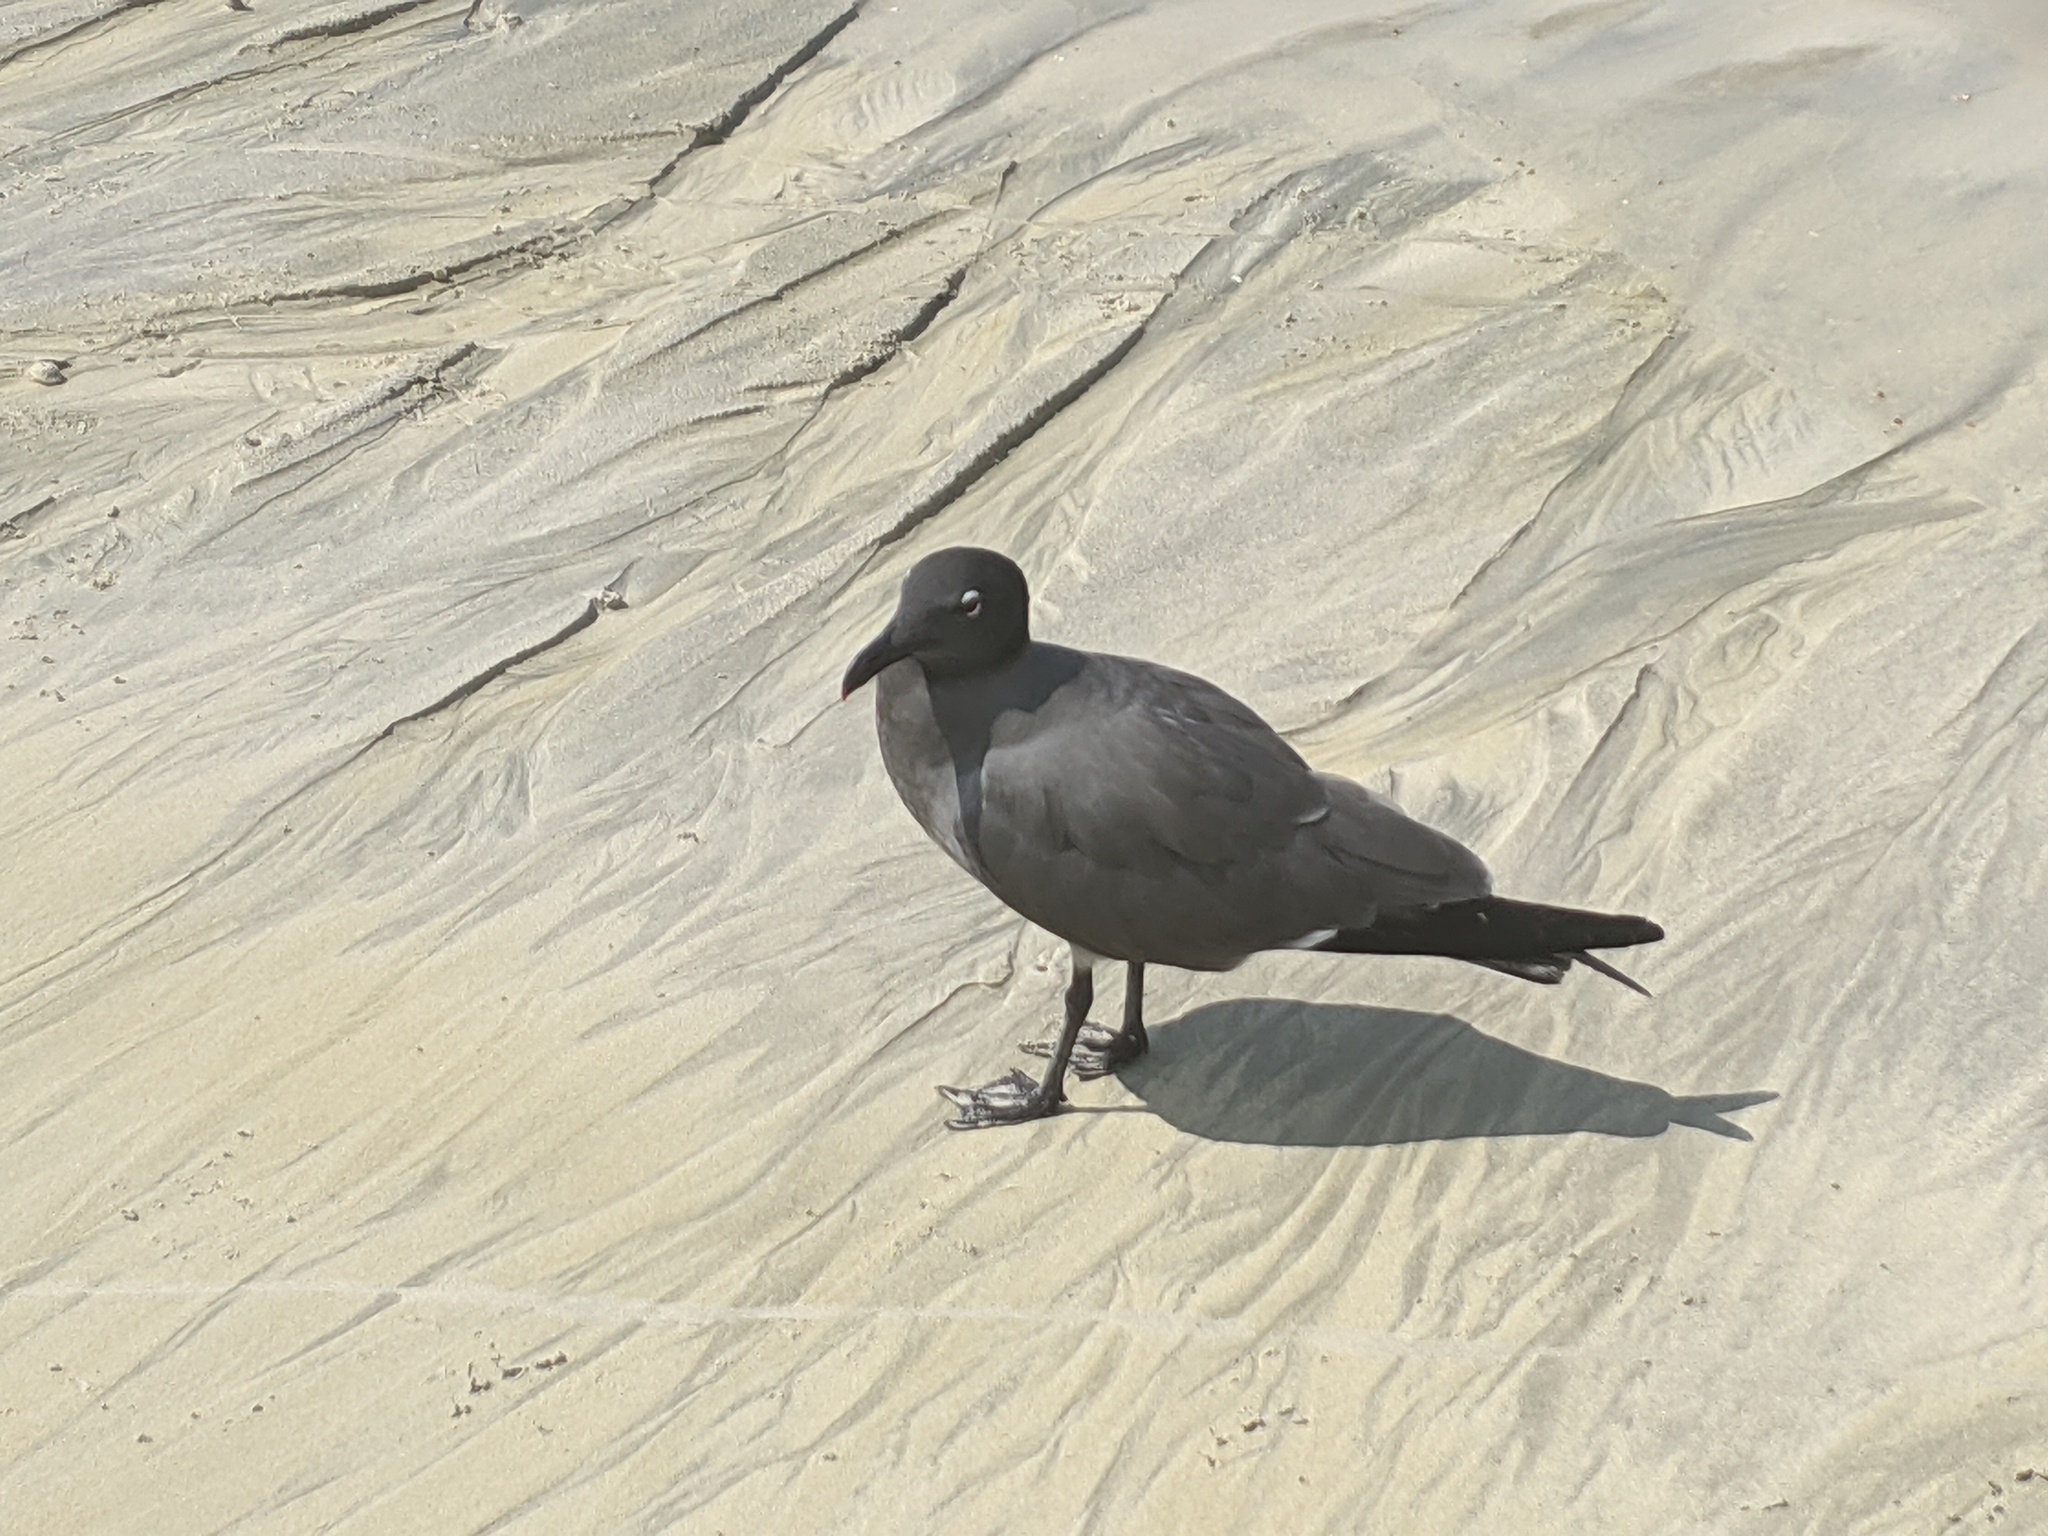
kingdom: Animalia
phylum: Chordata
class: Aves
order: Charadriiformes
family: Laridae
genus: Leucophaeus
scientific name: Leucophaeus fuliginosus
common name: Lava gull
